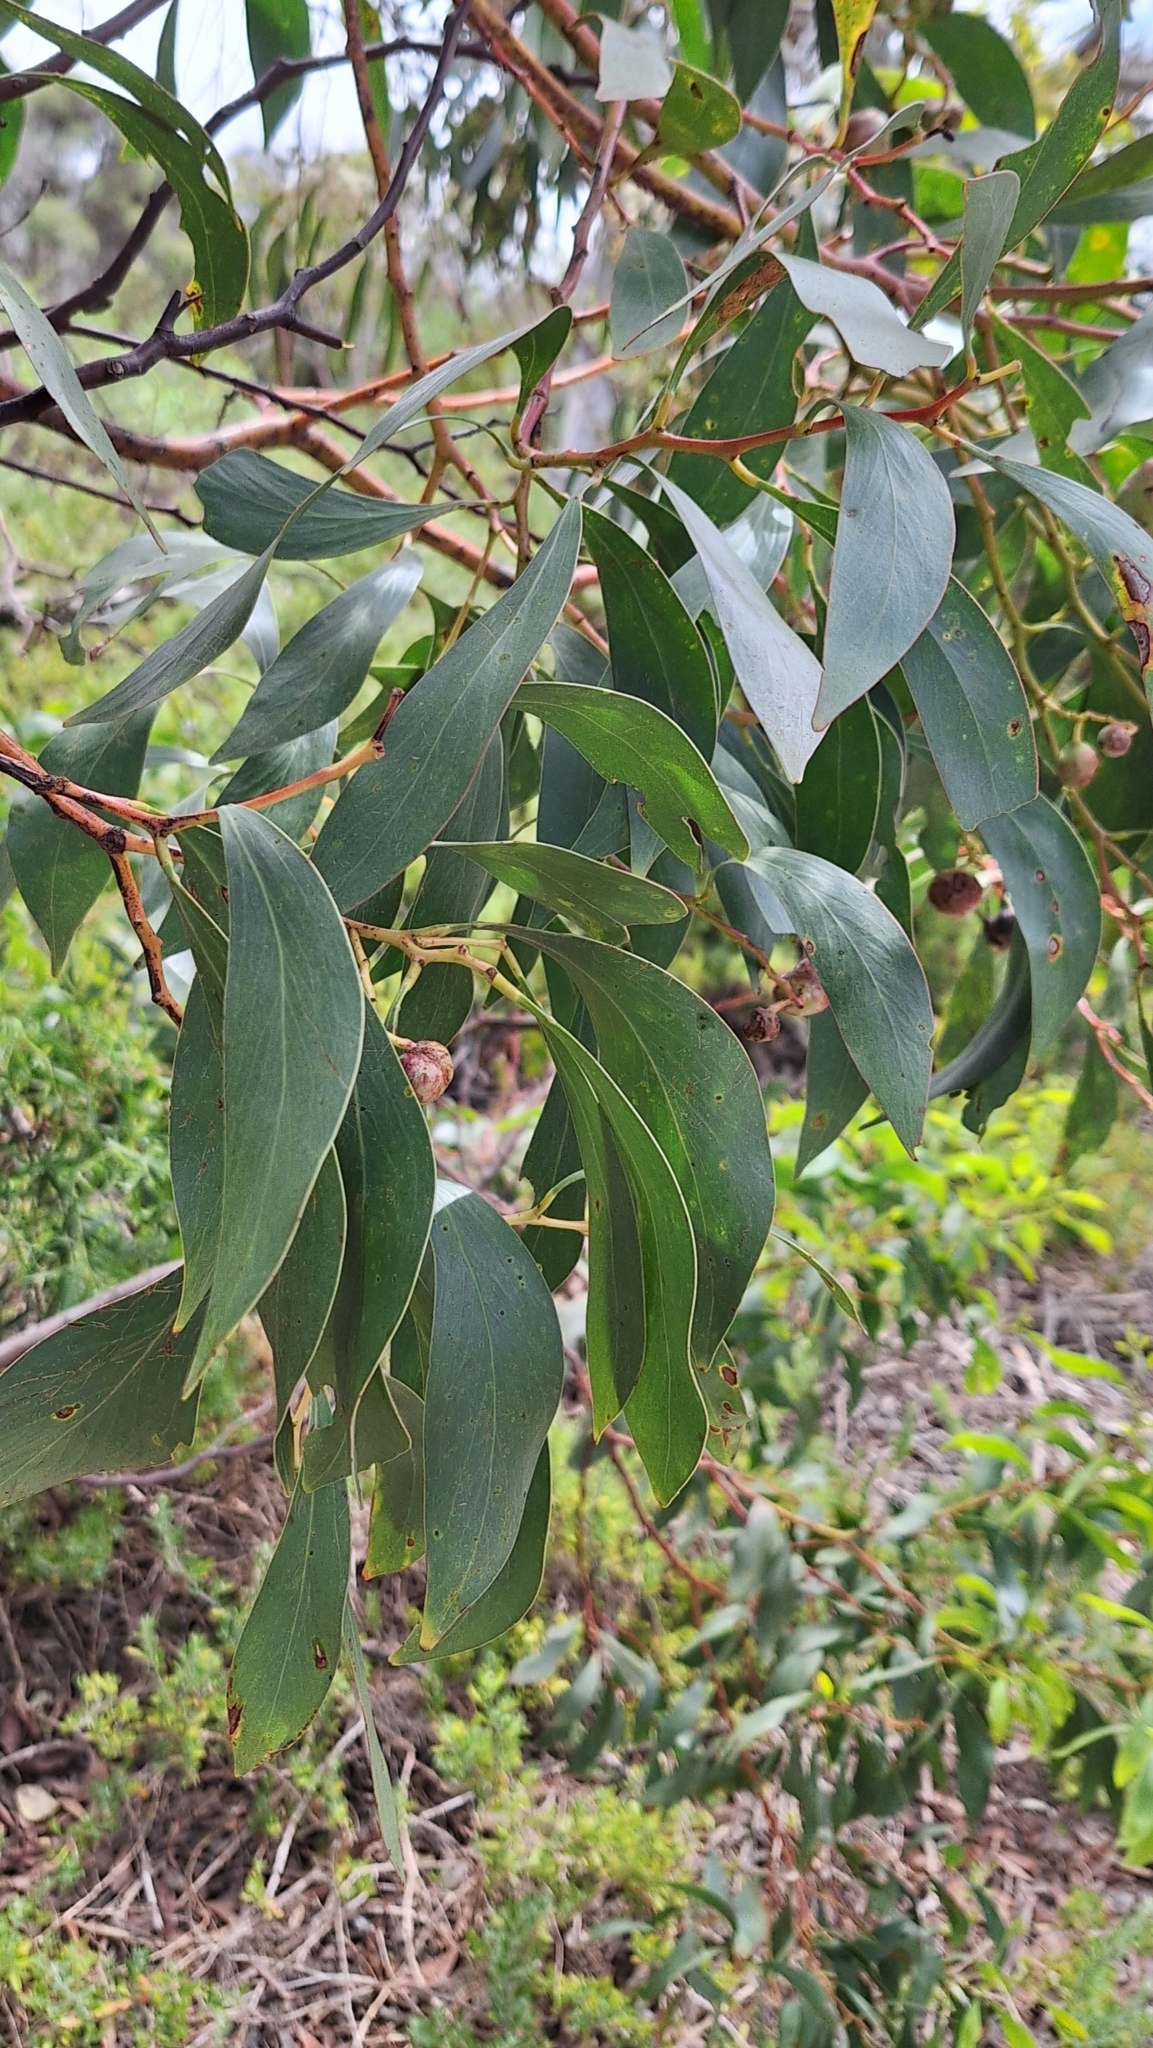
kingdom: Plantae
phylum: Tracheophyta
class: Magnoliopsida
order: Fabales
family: Fabaceae
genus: Acacia
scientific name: Acacia pycnantha
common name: Golden wattle
